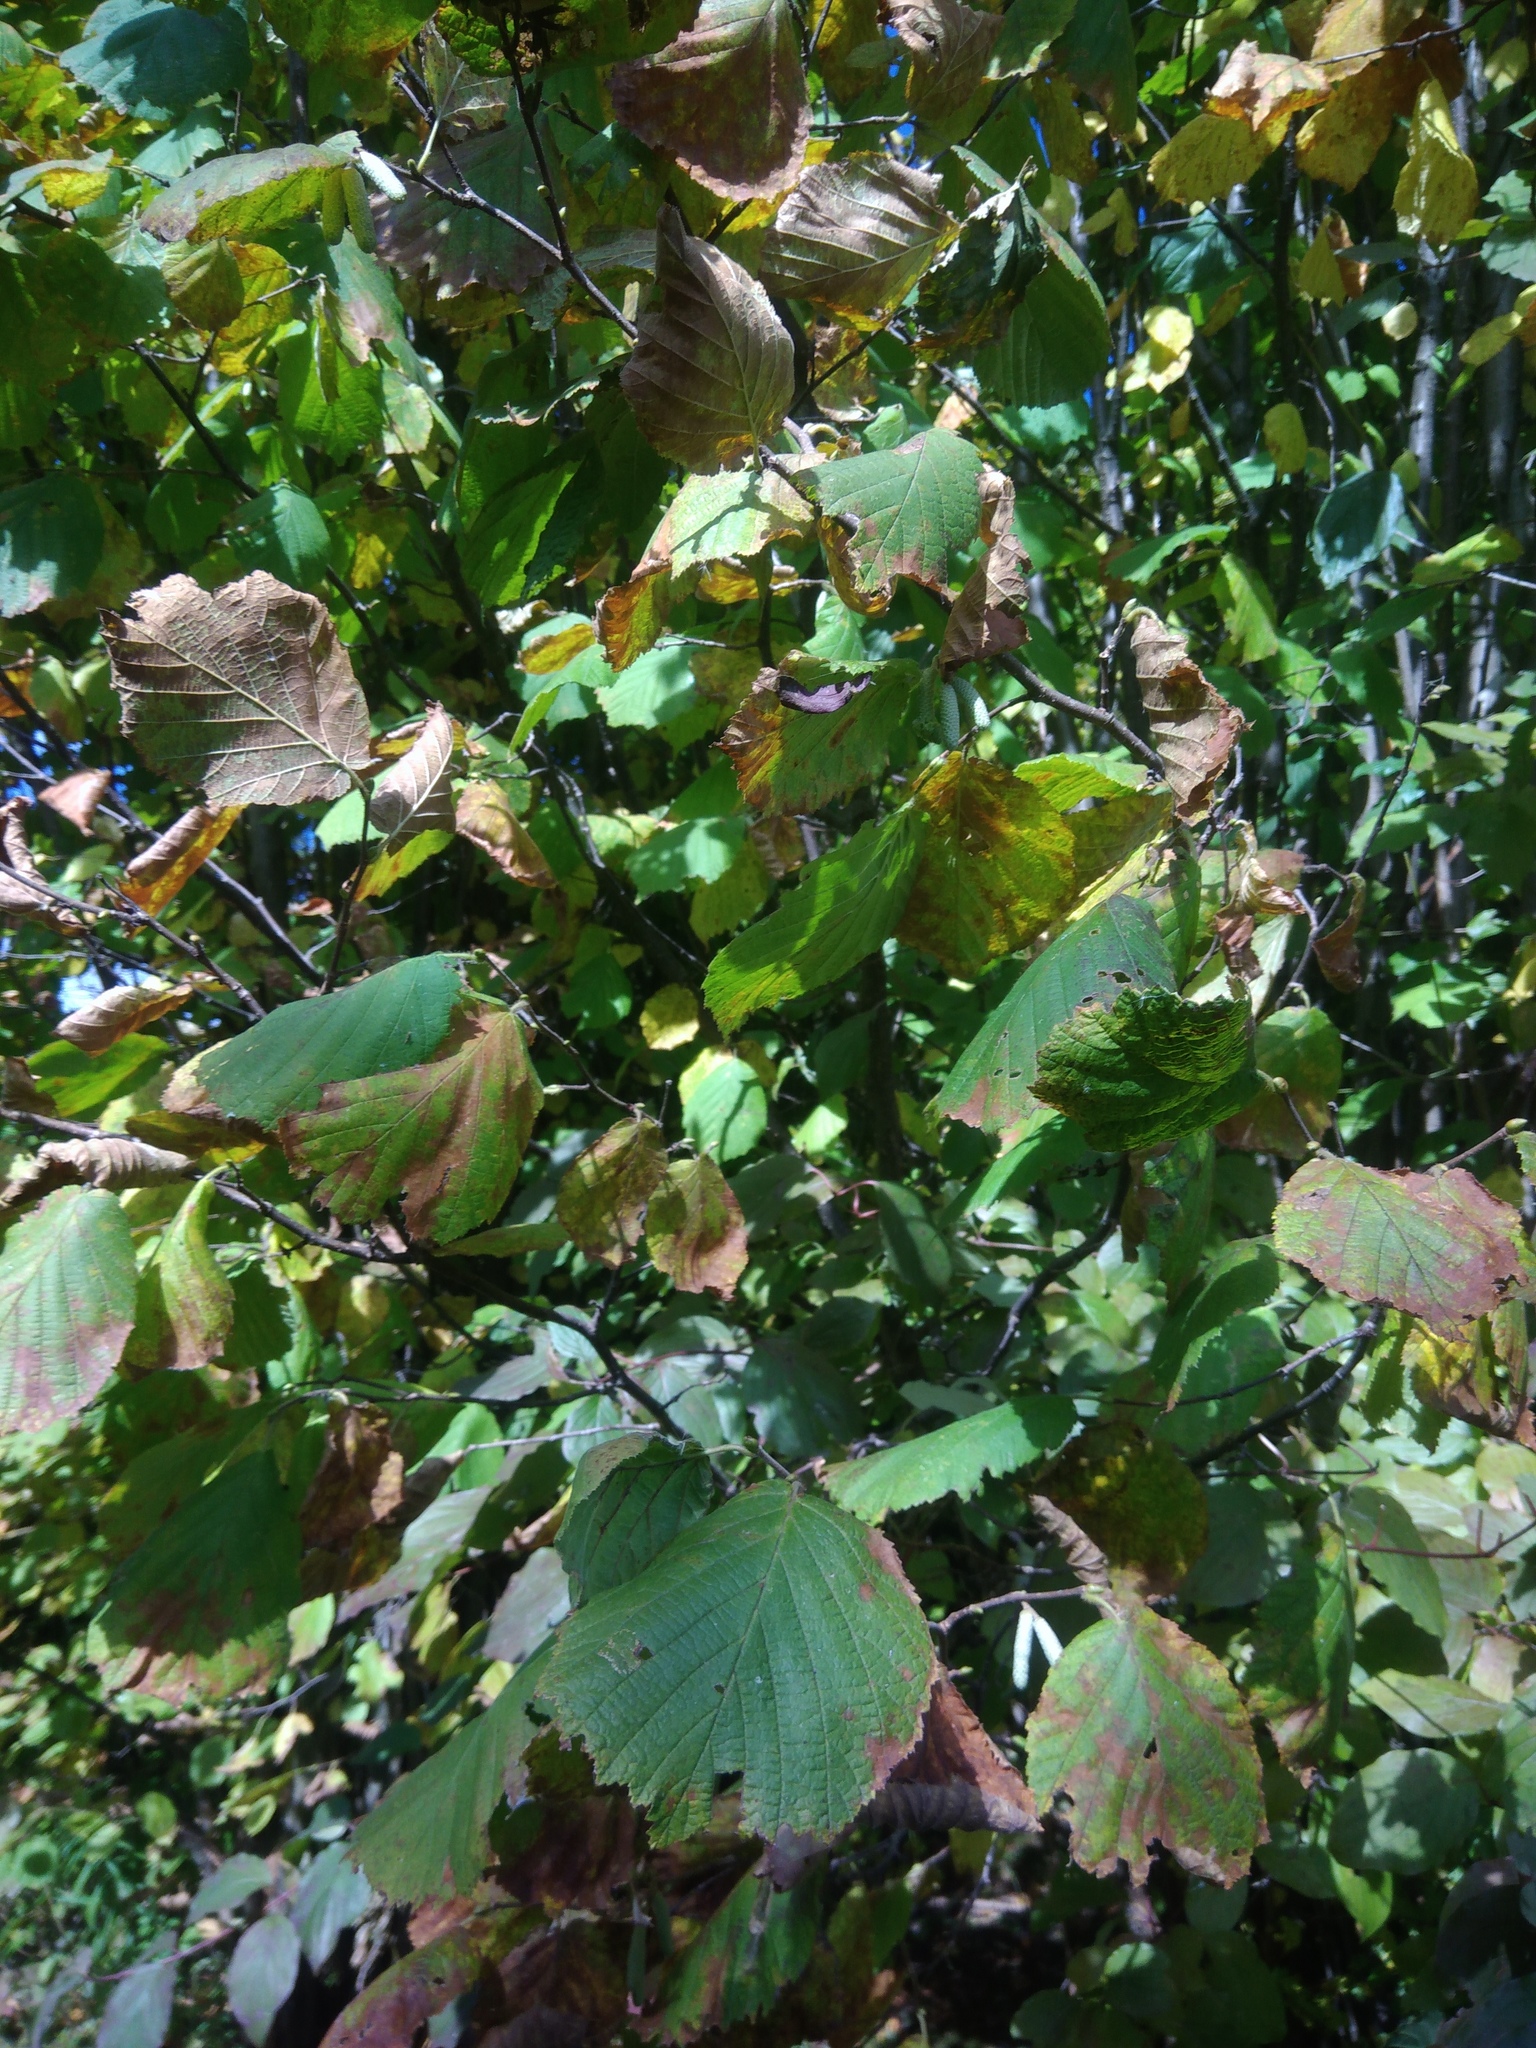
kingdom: Plantae
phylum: Tracheophyta
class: Magnoliopsida
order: Fagales
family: Betulaceae
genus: Corylus
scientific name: Corylus avellana
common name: European hazel
